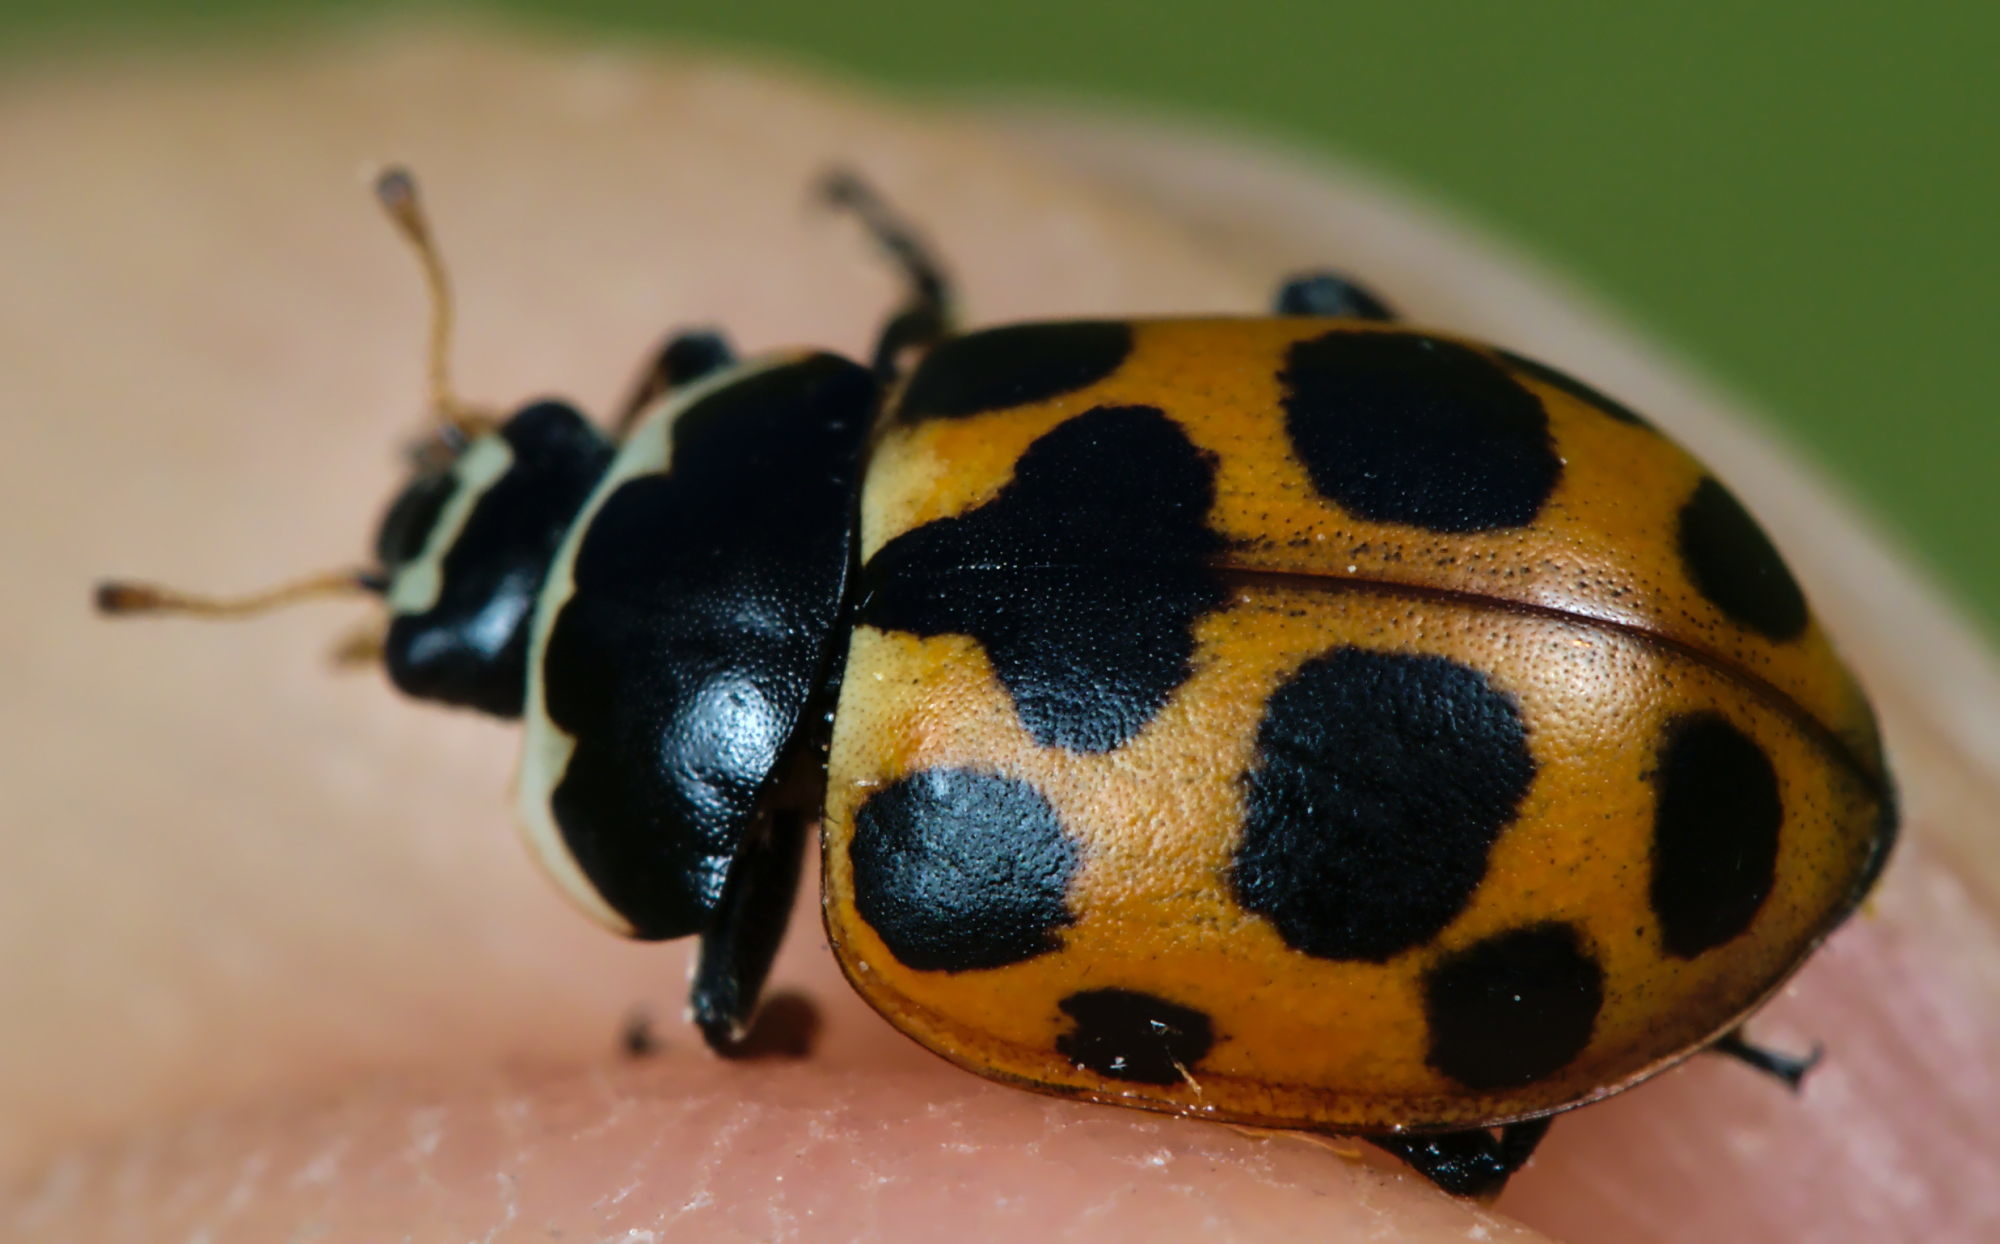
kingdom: Animalia
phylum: Arthropoda
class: Insecta
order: Coleoptera
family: Coccinellidae
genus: Ceratomegilla
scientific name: Ceratomegilla notata
